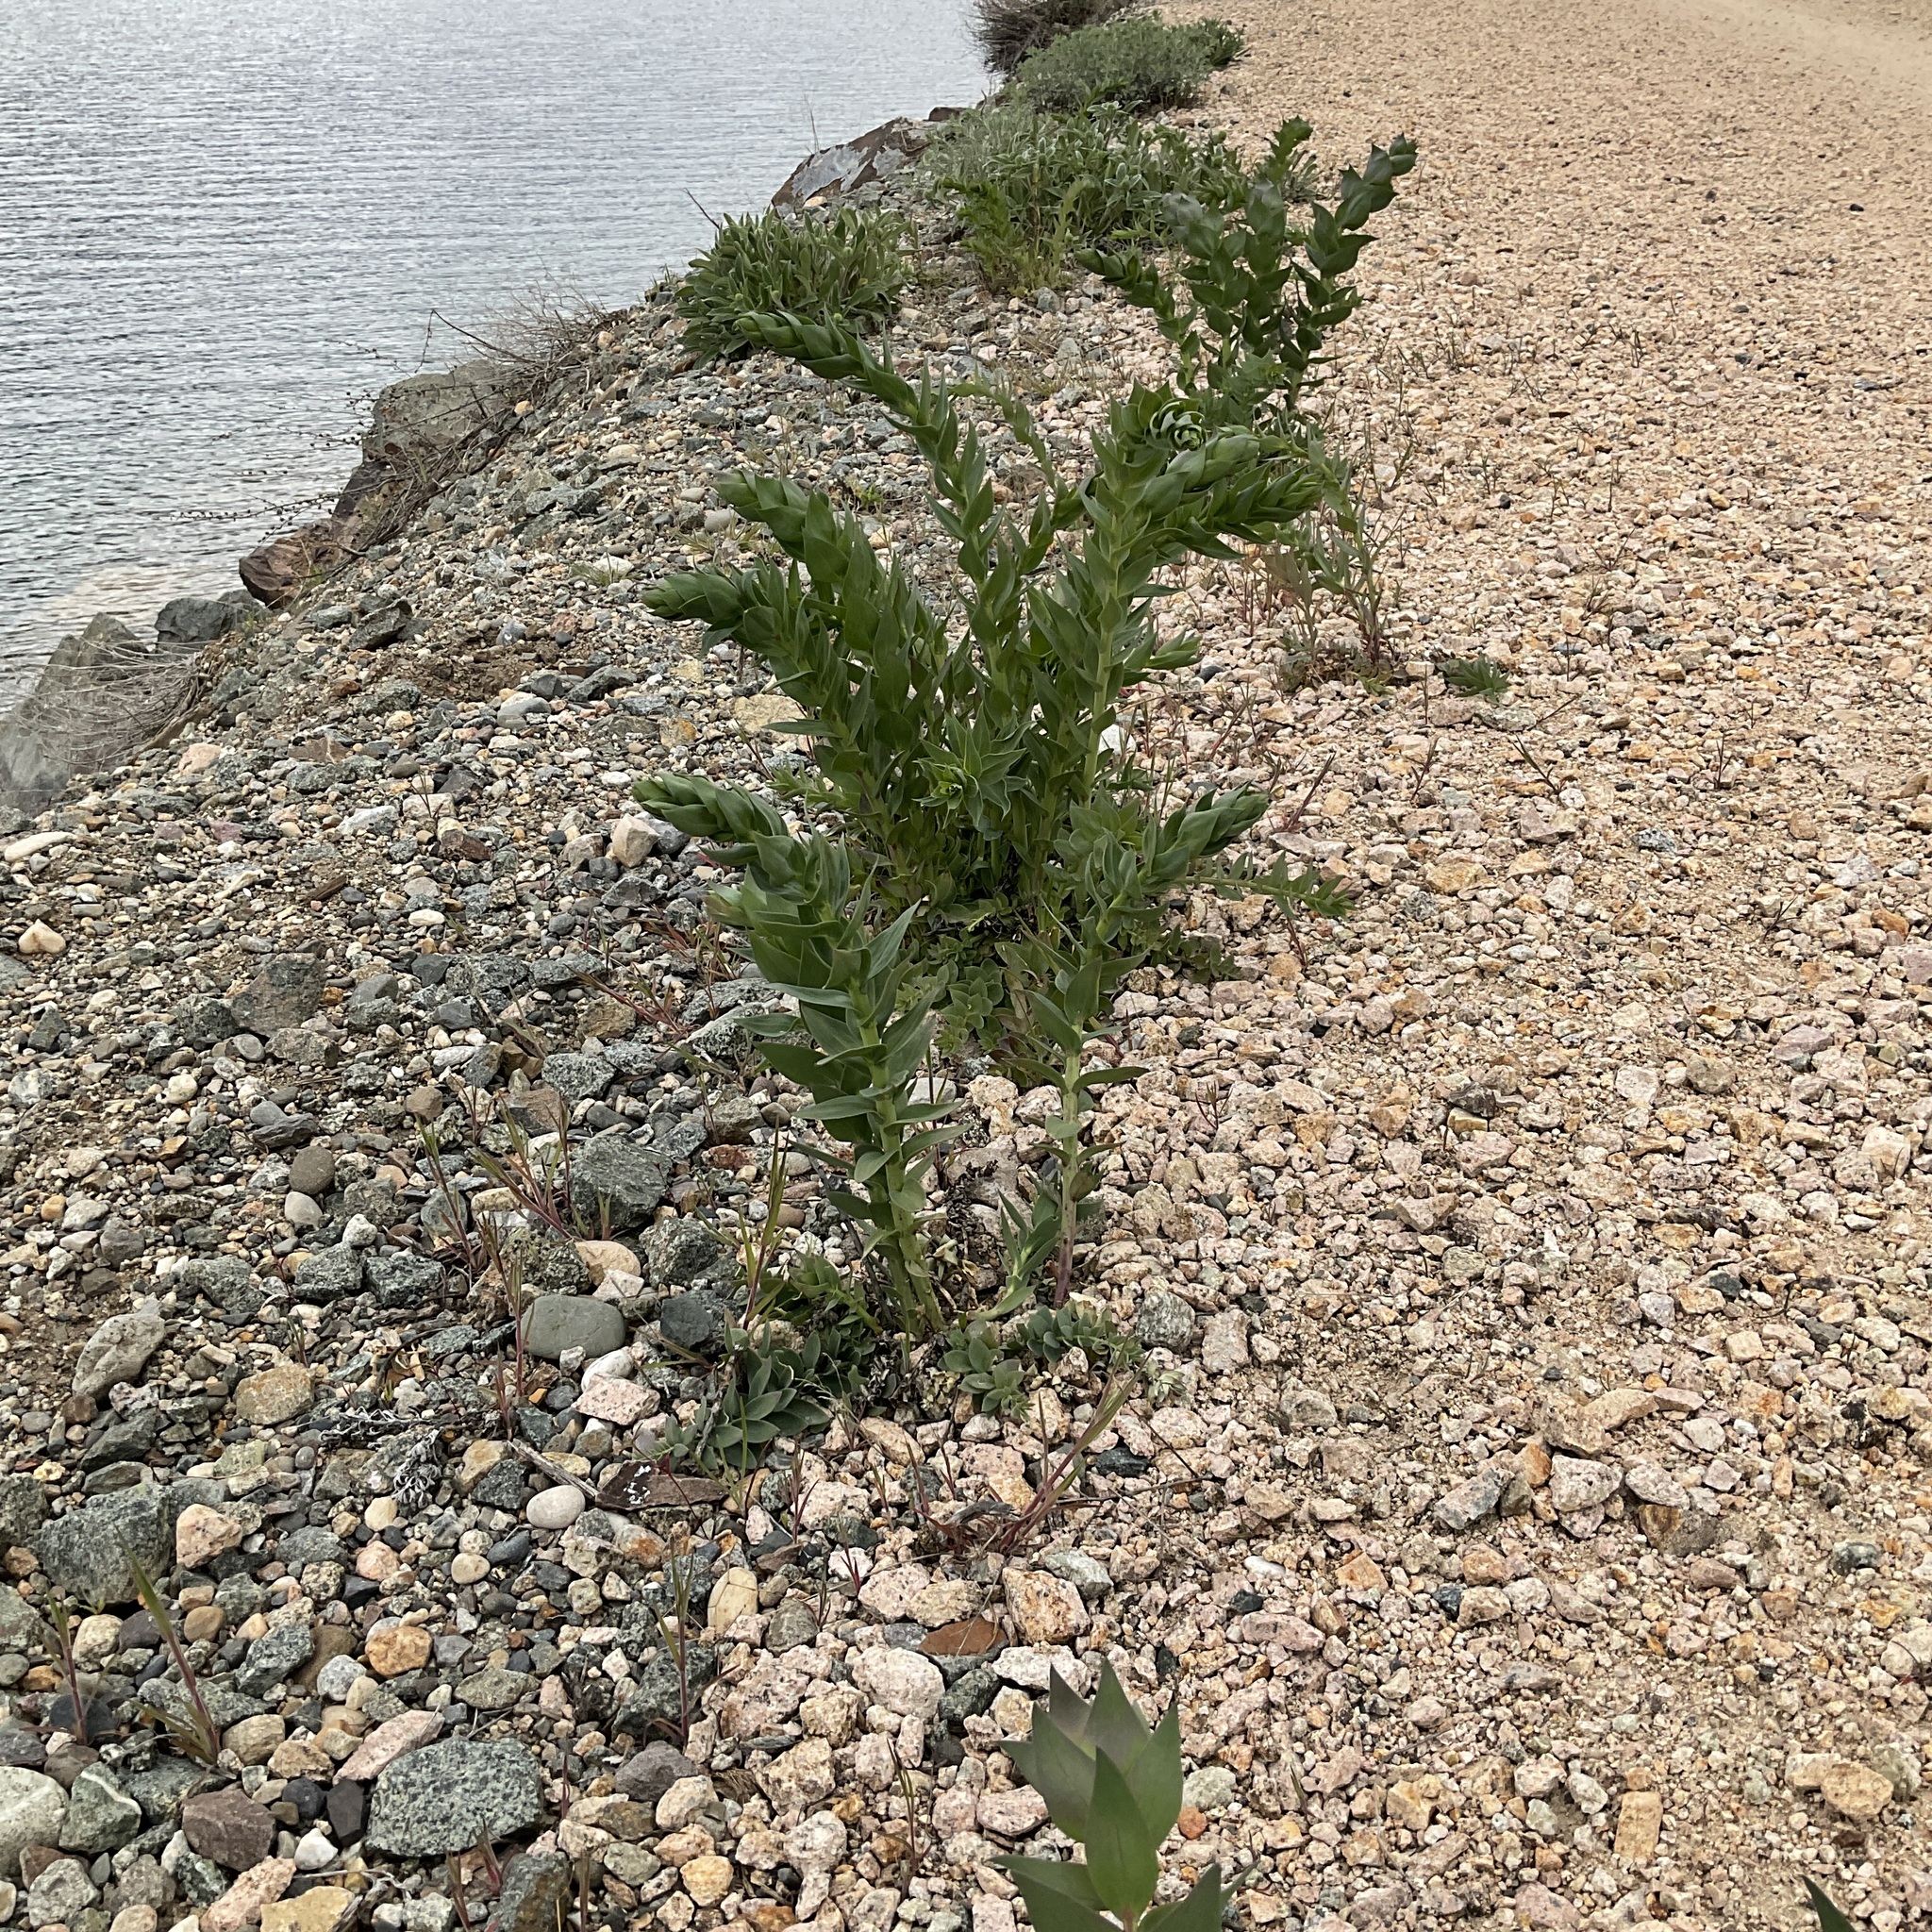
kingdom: Plantae
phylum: Tracheophyta
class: Magnoliopsida
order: Lamiales
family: Plantaginaceae
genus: Linaria
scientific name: Linaria dalmatica
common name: Dalmatian toadflax
